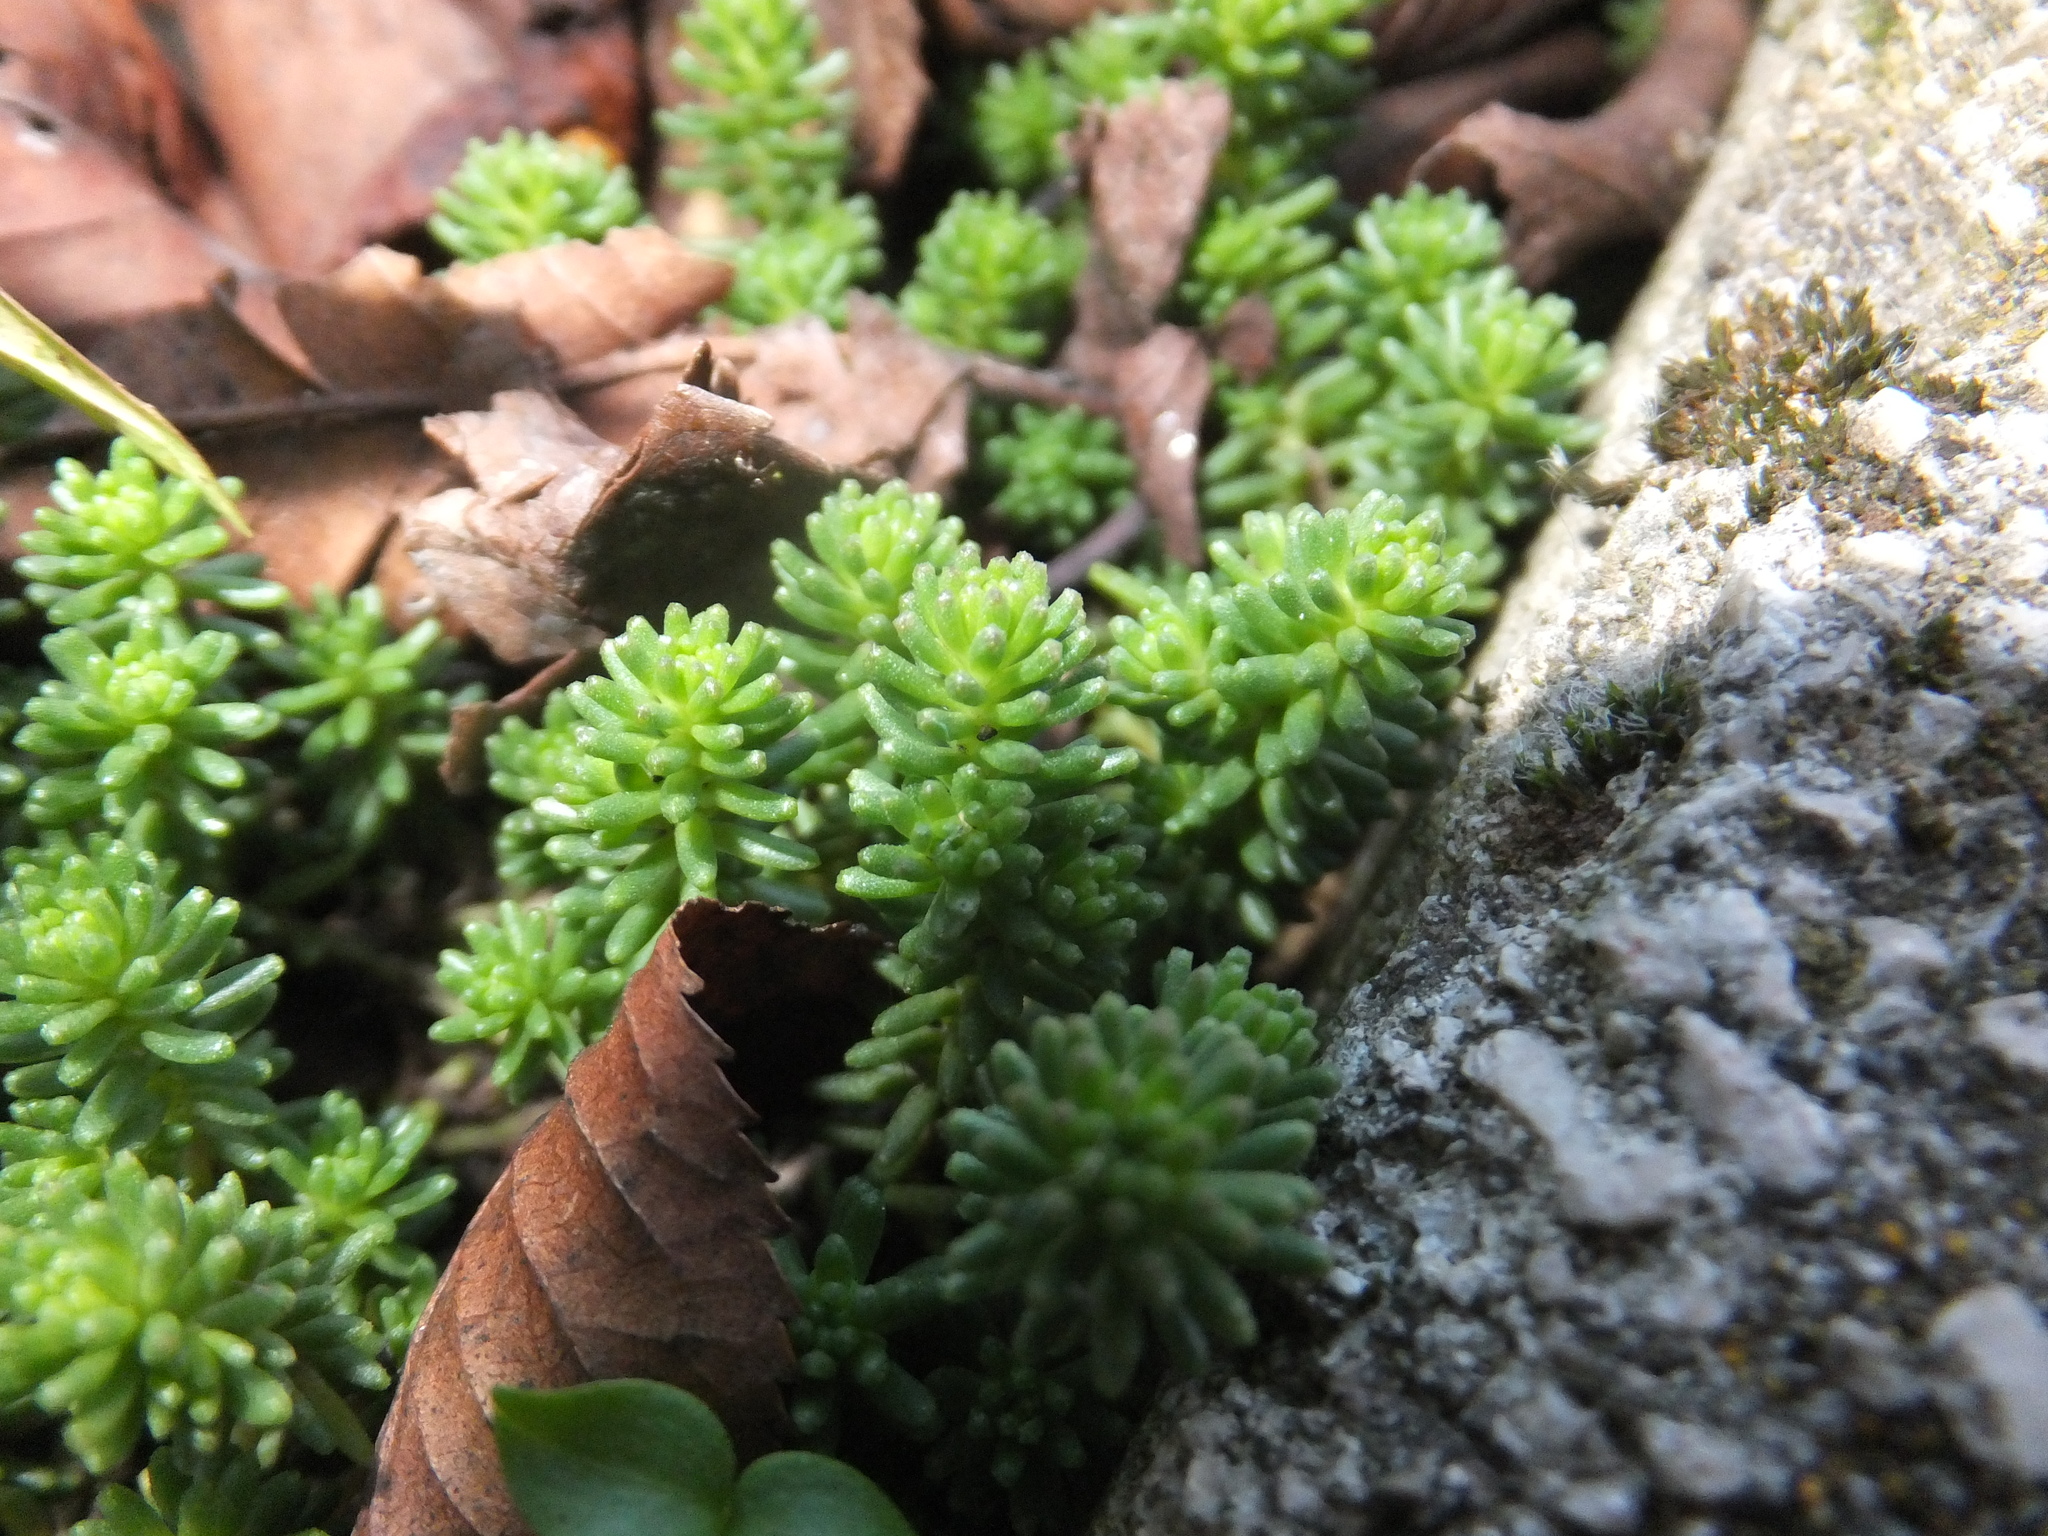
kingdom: Plantae
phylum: Tracheophyta
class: Magnoliopsida
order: Saxifragales
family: Crassulaceae
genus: Sedum
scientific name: Sedum sexangulare
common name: Tasteless stonecrop
